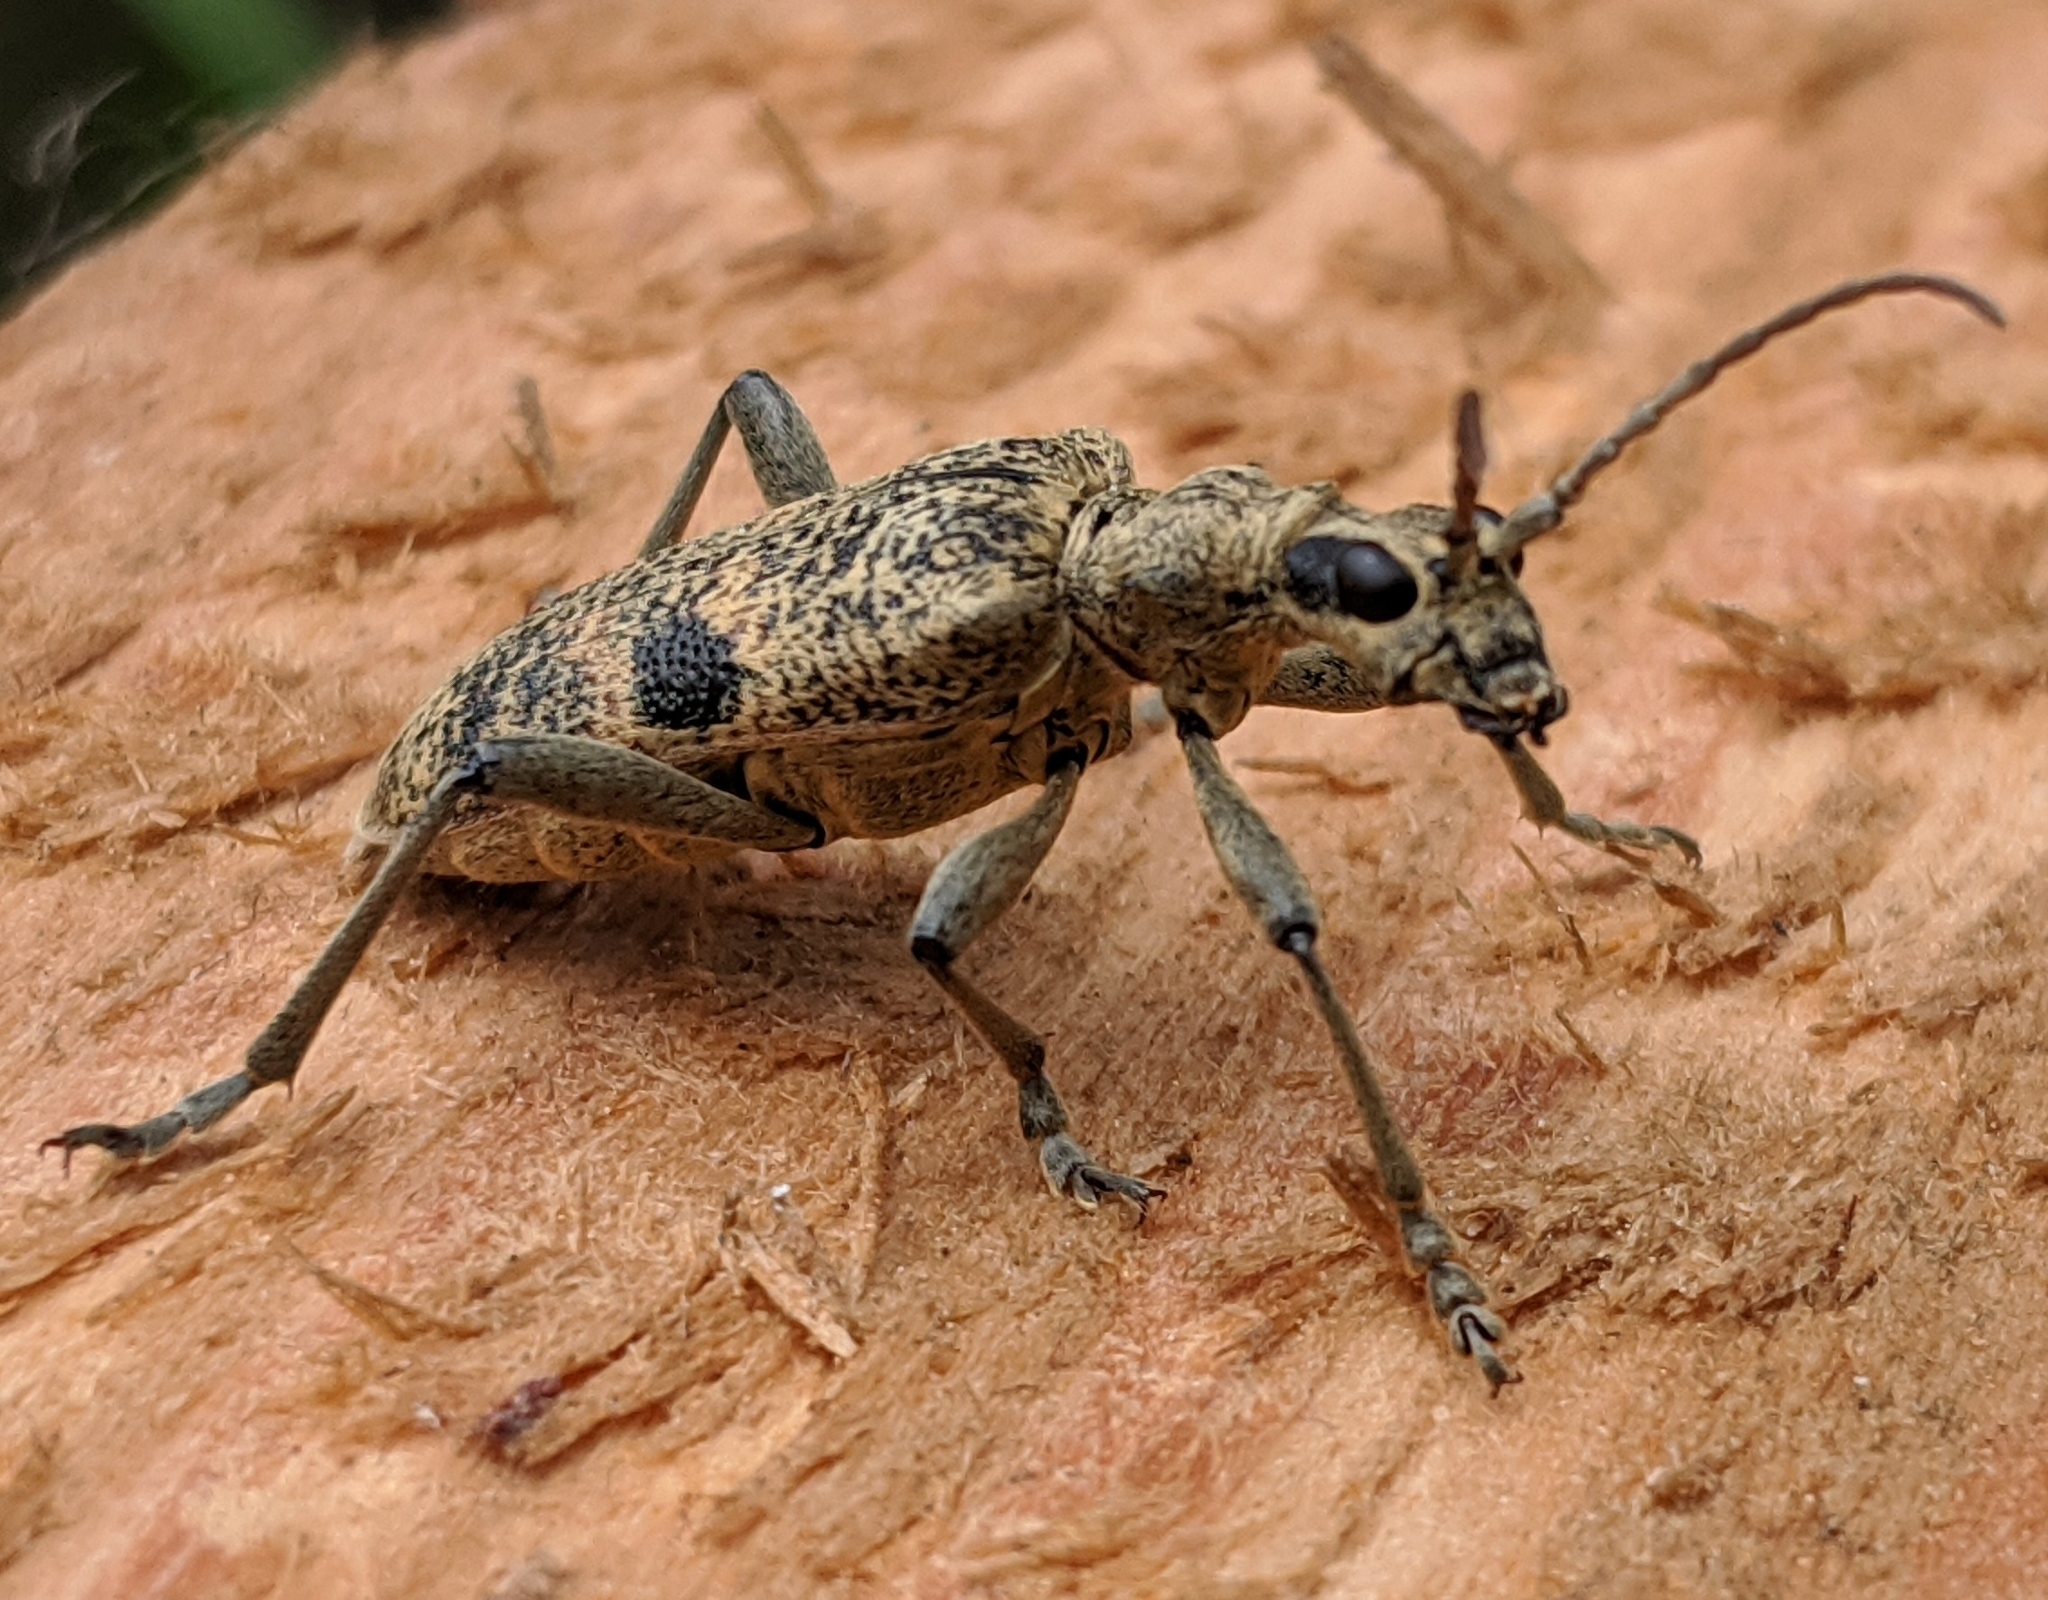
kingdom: Animalia
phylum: Arthropoda
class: Insecta
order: Coleoptera
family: Cerambycidae
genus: Rhagium
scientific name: Rhagium mordax
